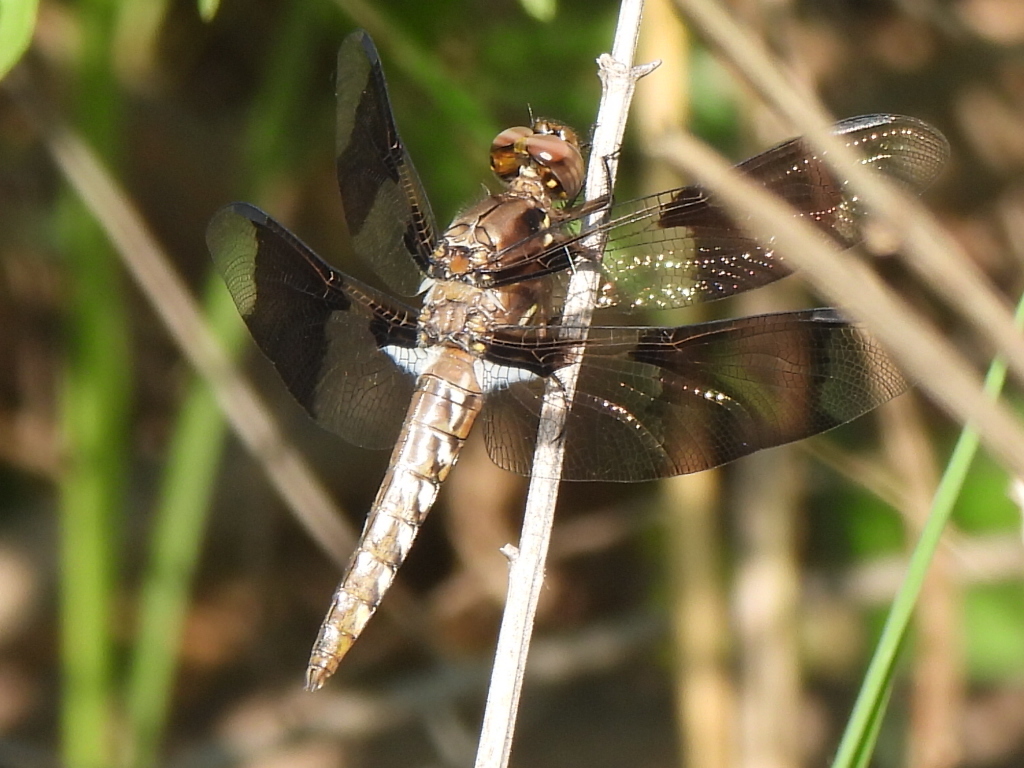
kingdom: Animalia
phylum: Arthropoda
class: Insecta
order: Odonata
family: Libellulidae
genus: Plathemis
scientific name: Plathemis lydia
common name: Common whitetail
